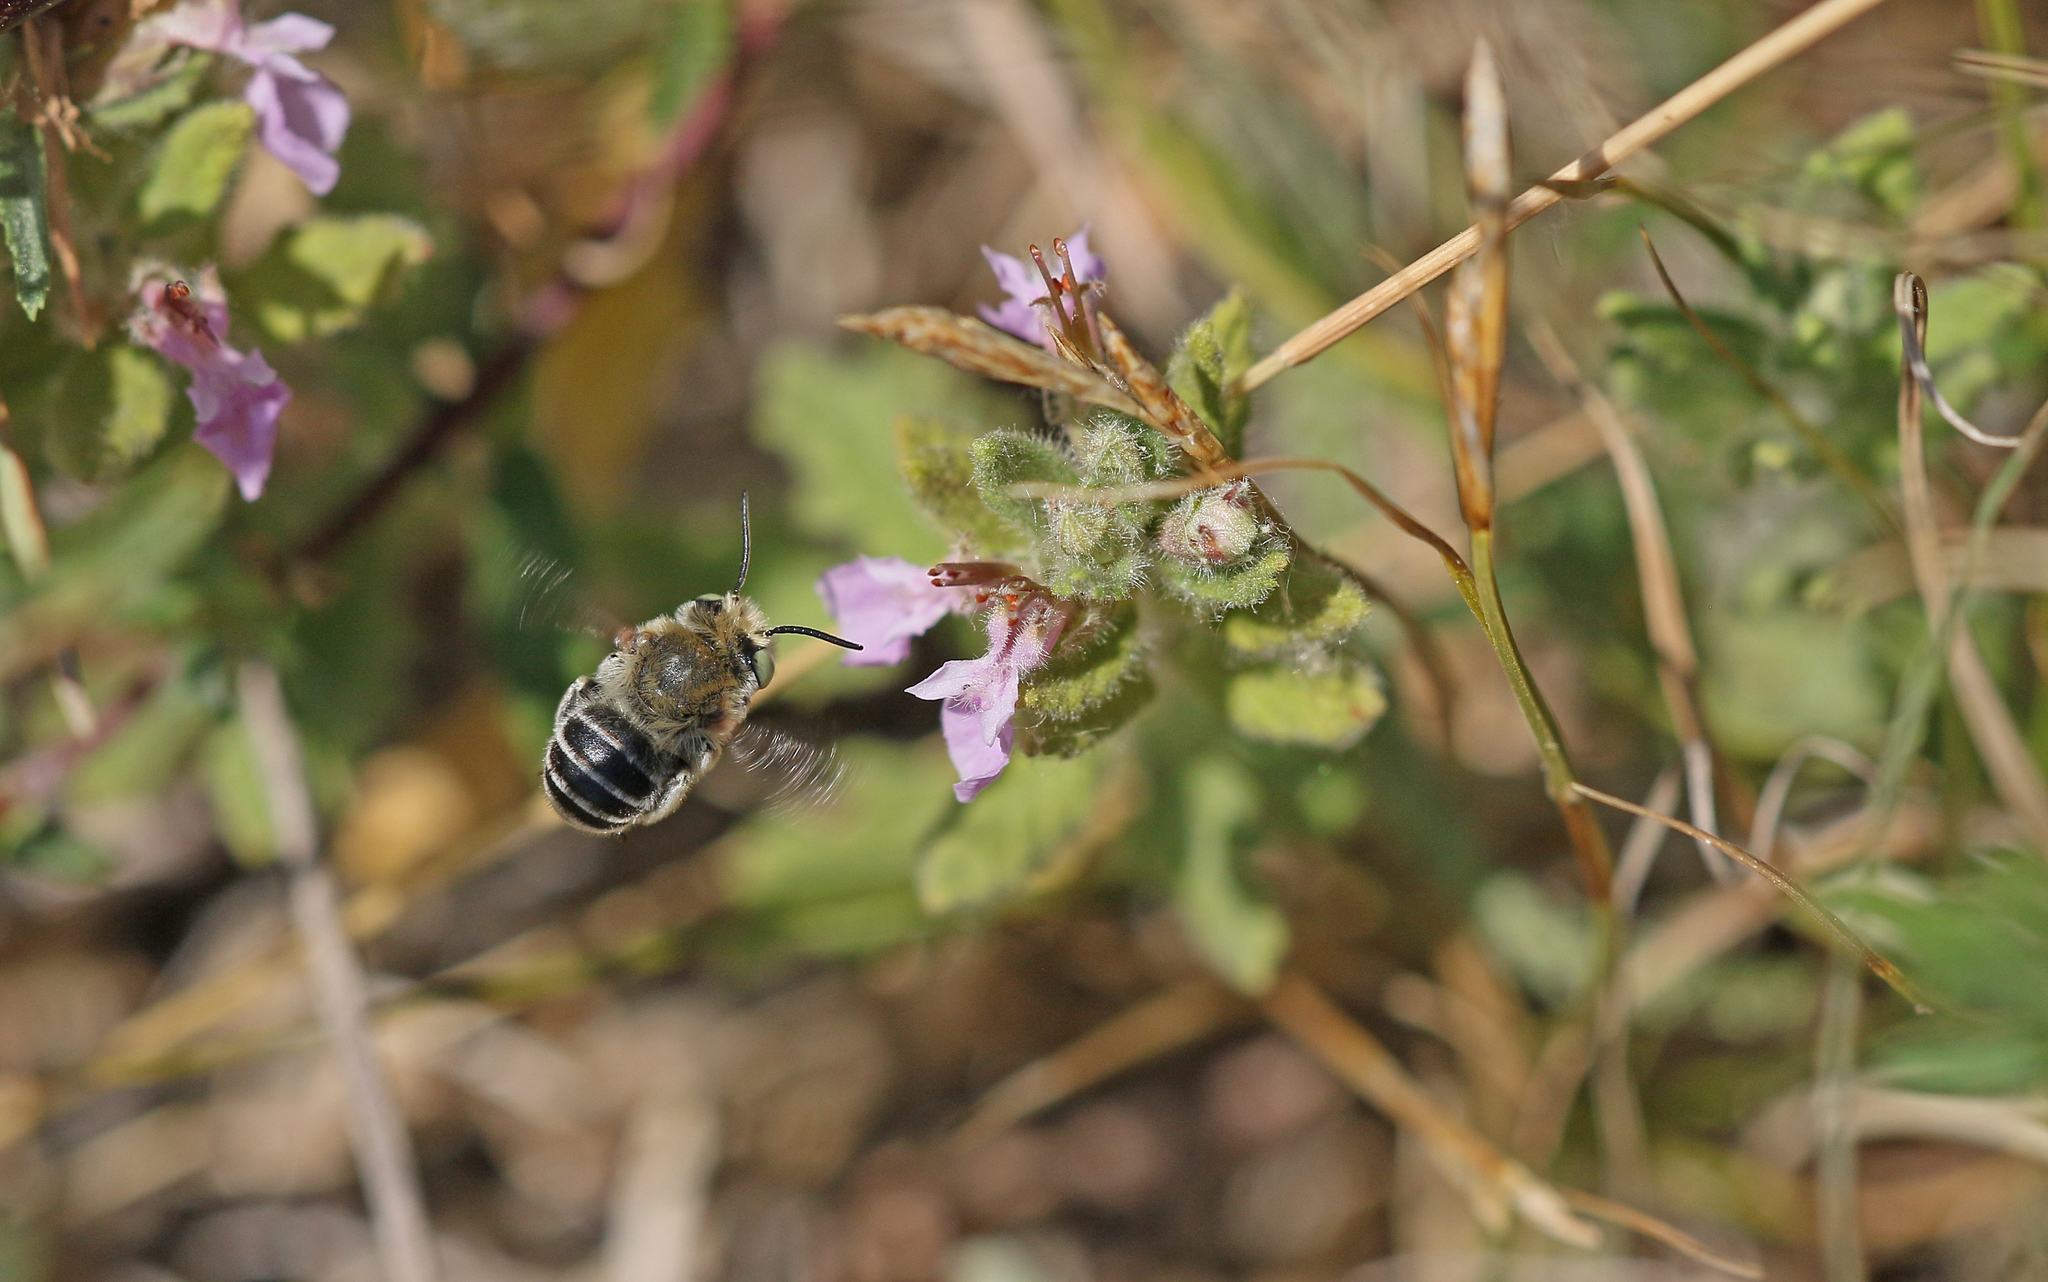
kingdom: Animalia
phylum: Arthropoda
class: Insecta
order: Hymenoptera
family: Apidae
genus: Anthophora
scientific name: Anthophora bimaculata
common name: Green-eyed flower bee
